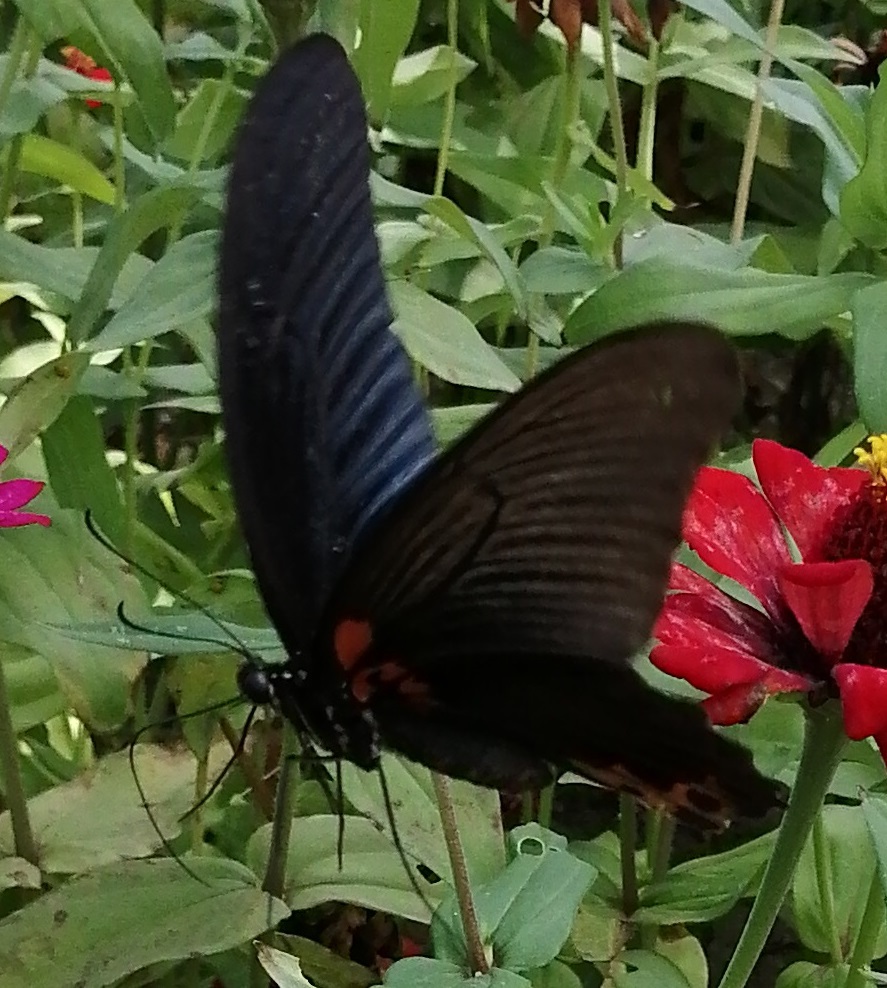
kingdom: Animalia
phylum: Arthropoda
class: Insecta
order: Lepidoptera
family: Papilionidae
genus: Papilio
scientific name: Papilio memnon
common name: Great mormon
